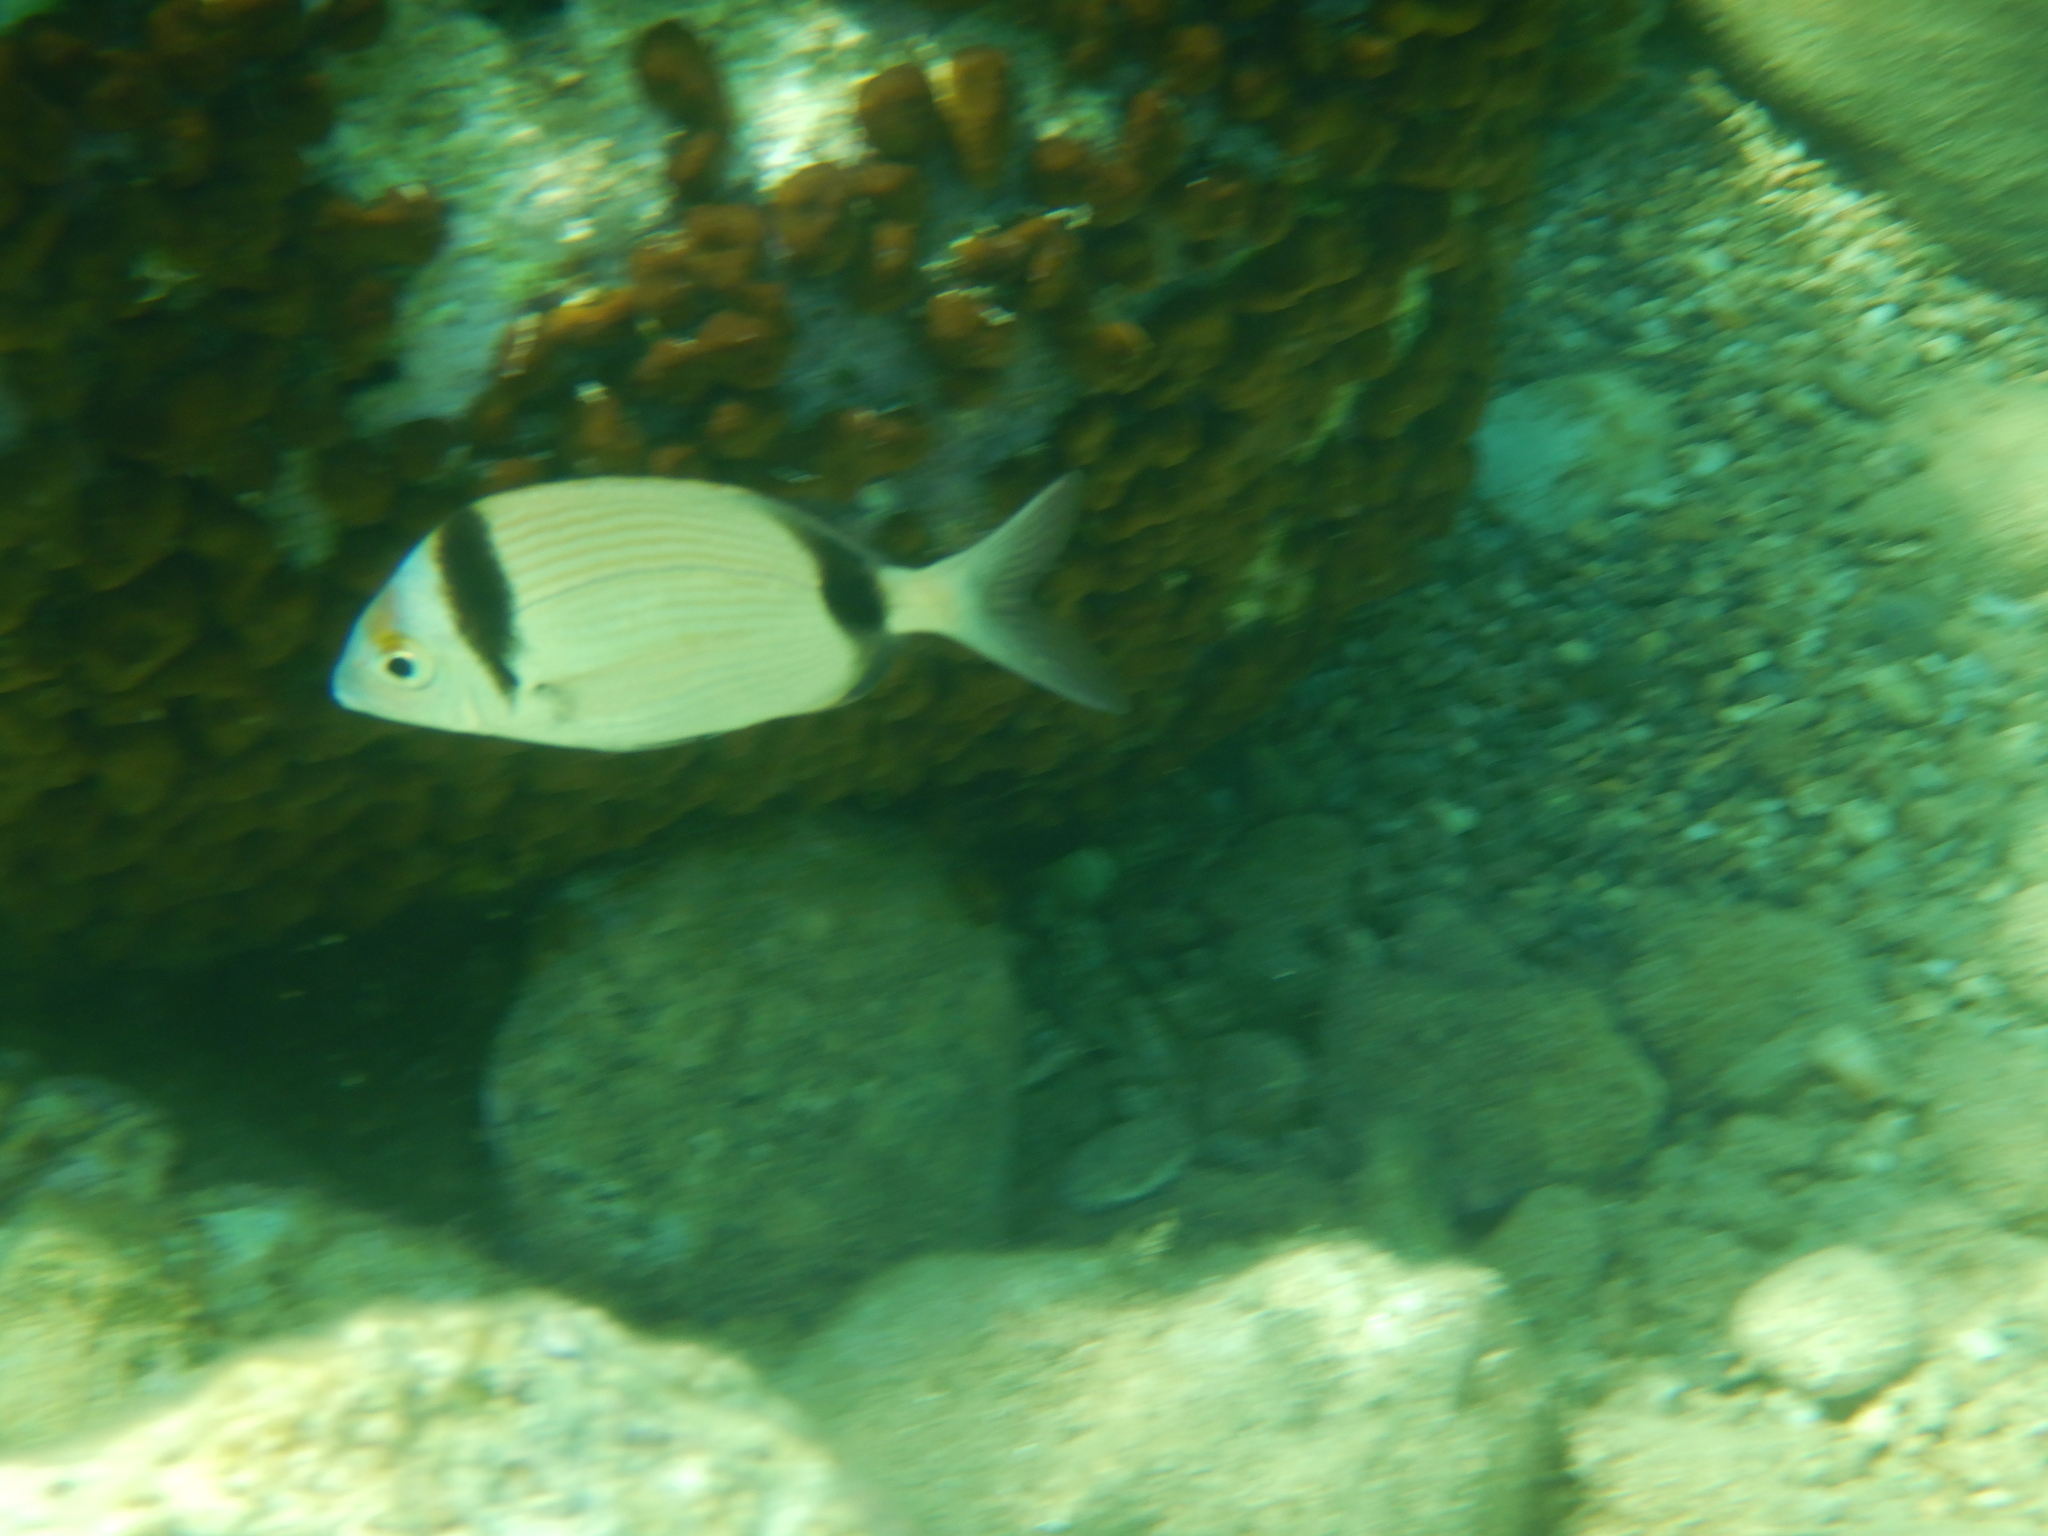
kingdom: Animalia
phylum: Chordata
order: Perciformes
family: Sparidae
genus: Diplodus
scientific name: Diplodus vulgaris
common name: Common two-banded seabream
